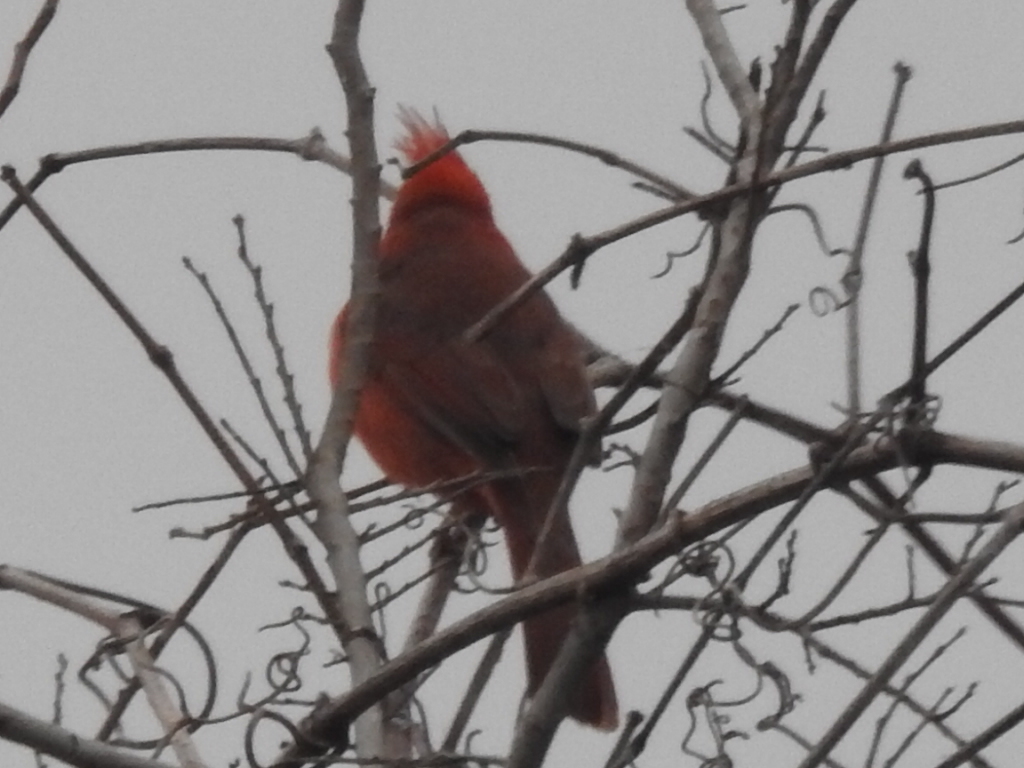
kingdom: Animalia
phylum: Chordata
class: Aves
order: Passeriformes
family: Cardinalidae
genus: Cardinalis
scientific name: Cardinalis cardinalis
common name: Northern cardinal
